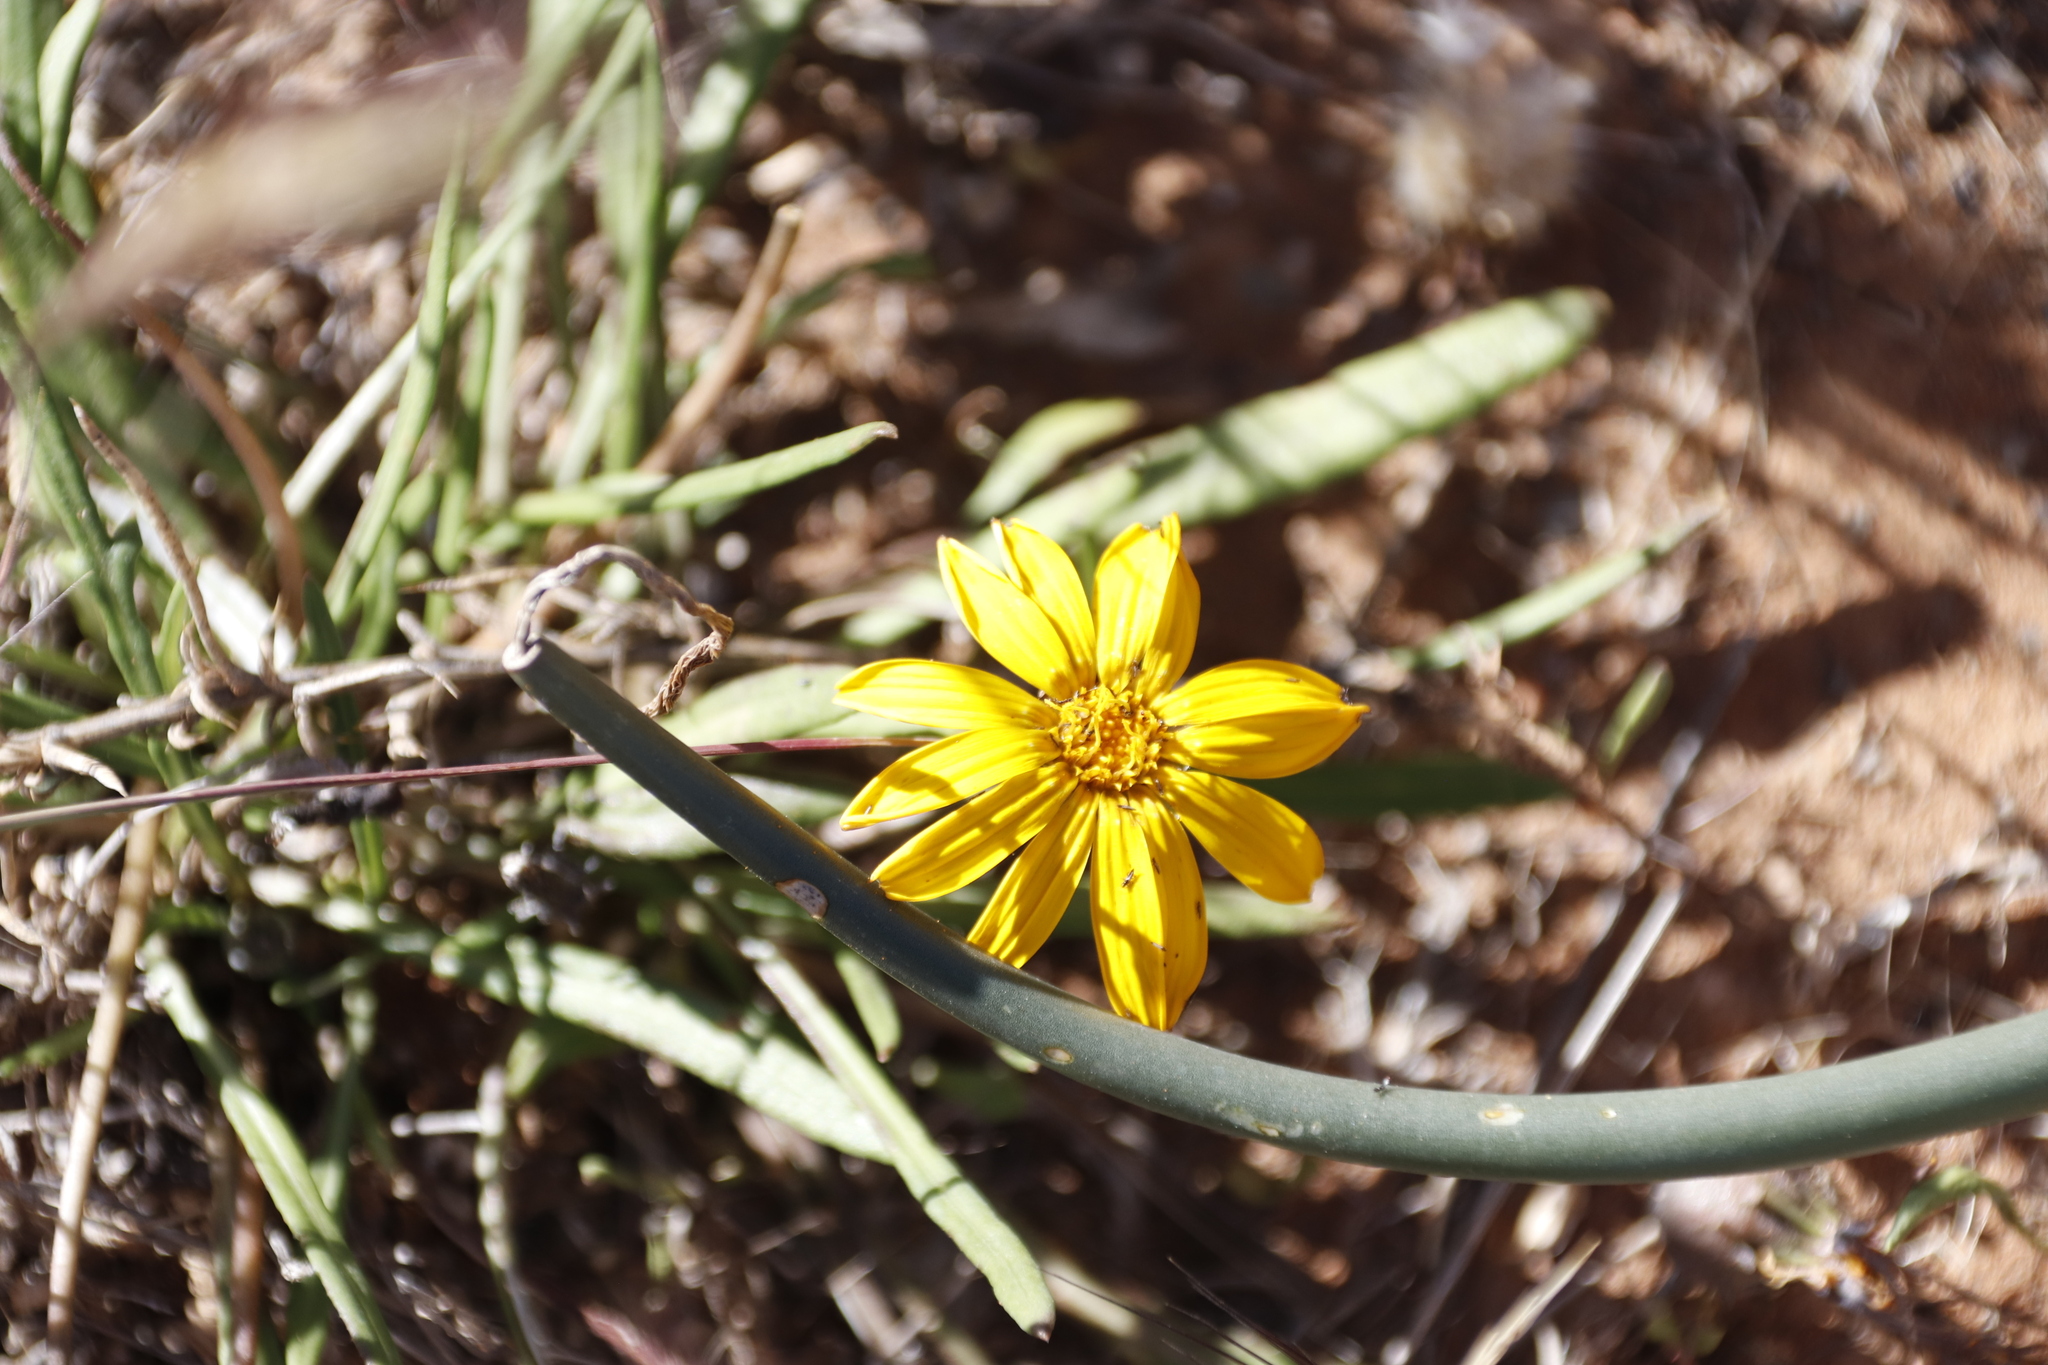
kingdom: Plantae
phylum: Tracheophyta
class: Magnoliopsida
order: Asterales
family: Asteraceae
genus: Gazania
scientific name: Gazania krebsiana
